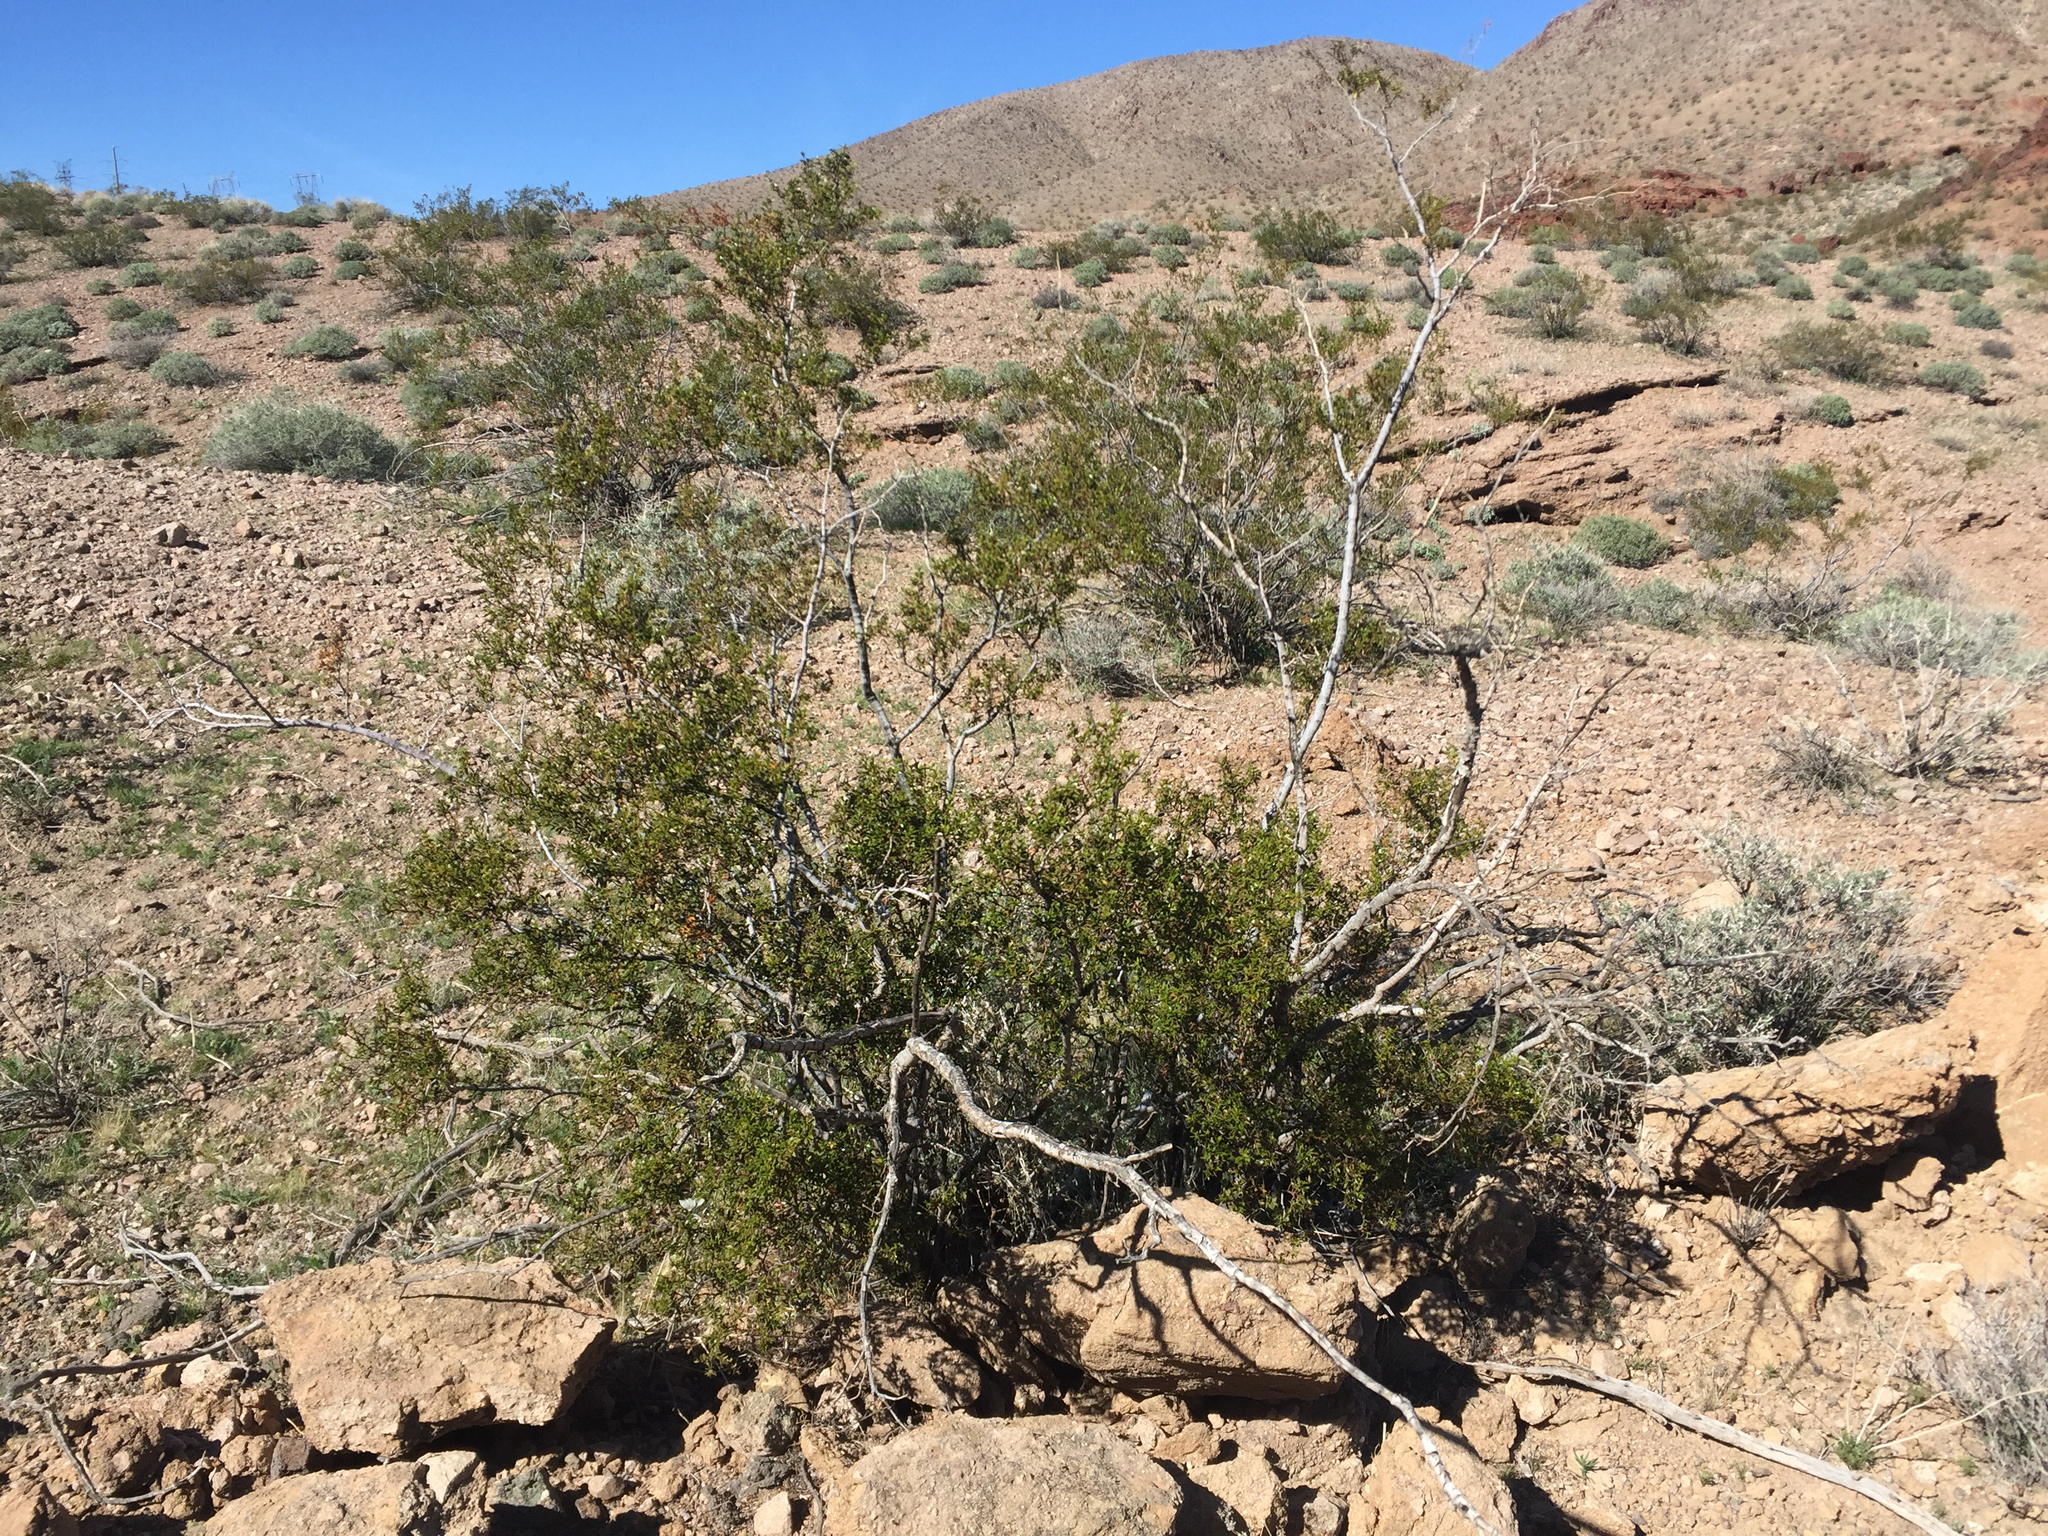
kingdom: Plantae
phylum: Tracheophyta
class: Magnoliopsida
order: Zygophyllales
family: Zygophyllaceae
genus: Larrea
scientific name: Larrea tridentata
